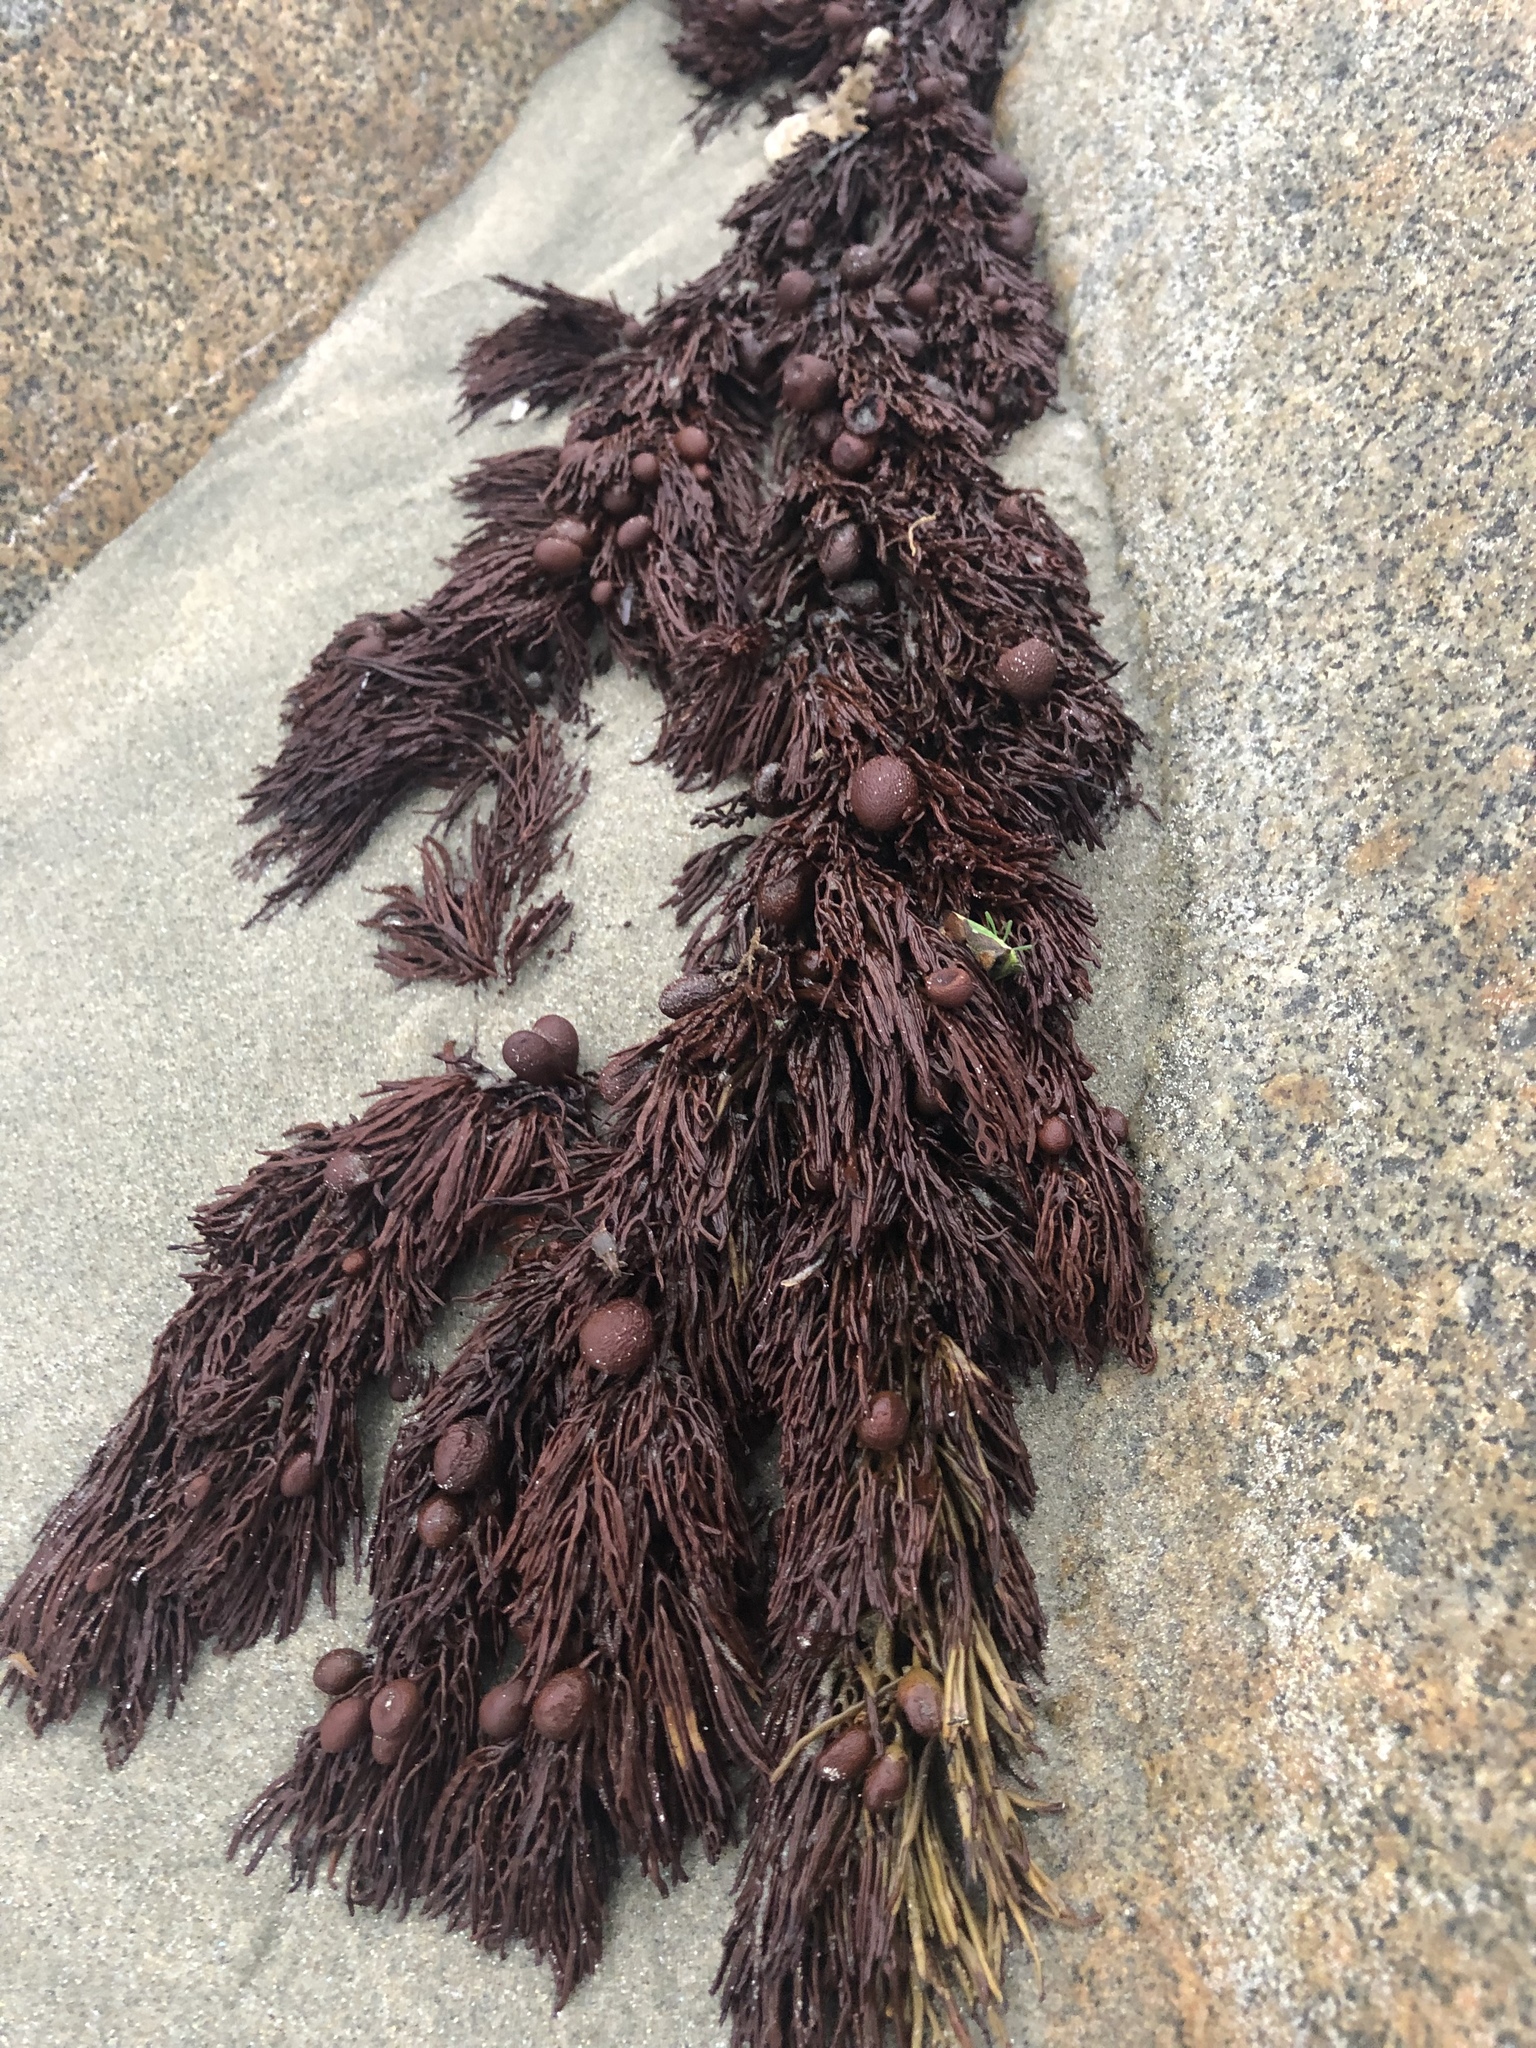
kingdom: Chromista
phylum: Ochrophyta
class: Phaeophyceae
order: Fucales
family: Sargassaceae
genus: Cystophora
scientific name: Cystophora retroflexa
